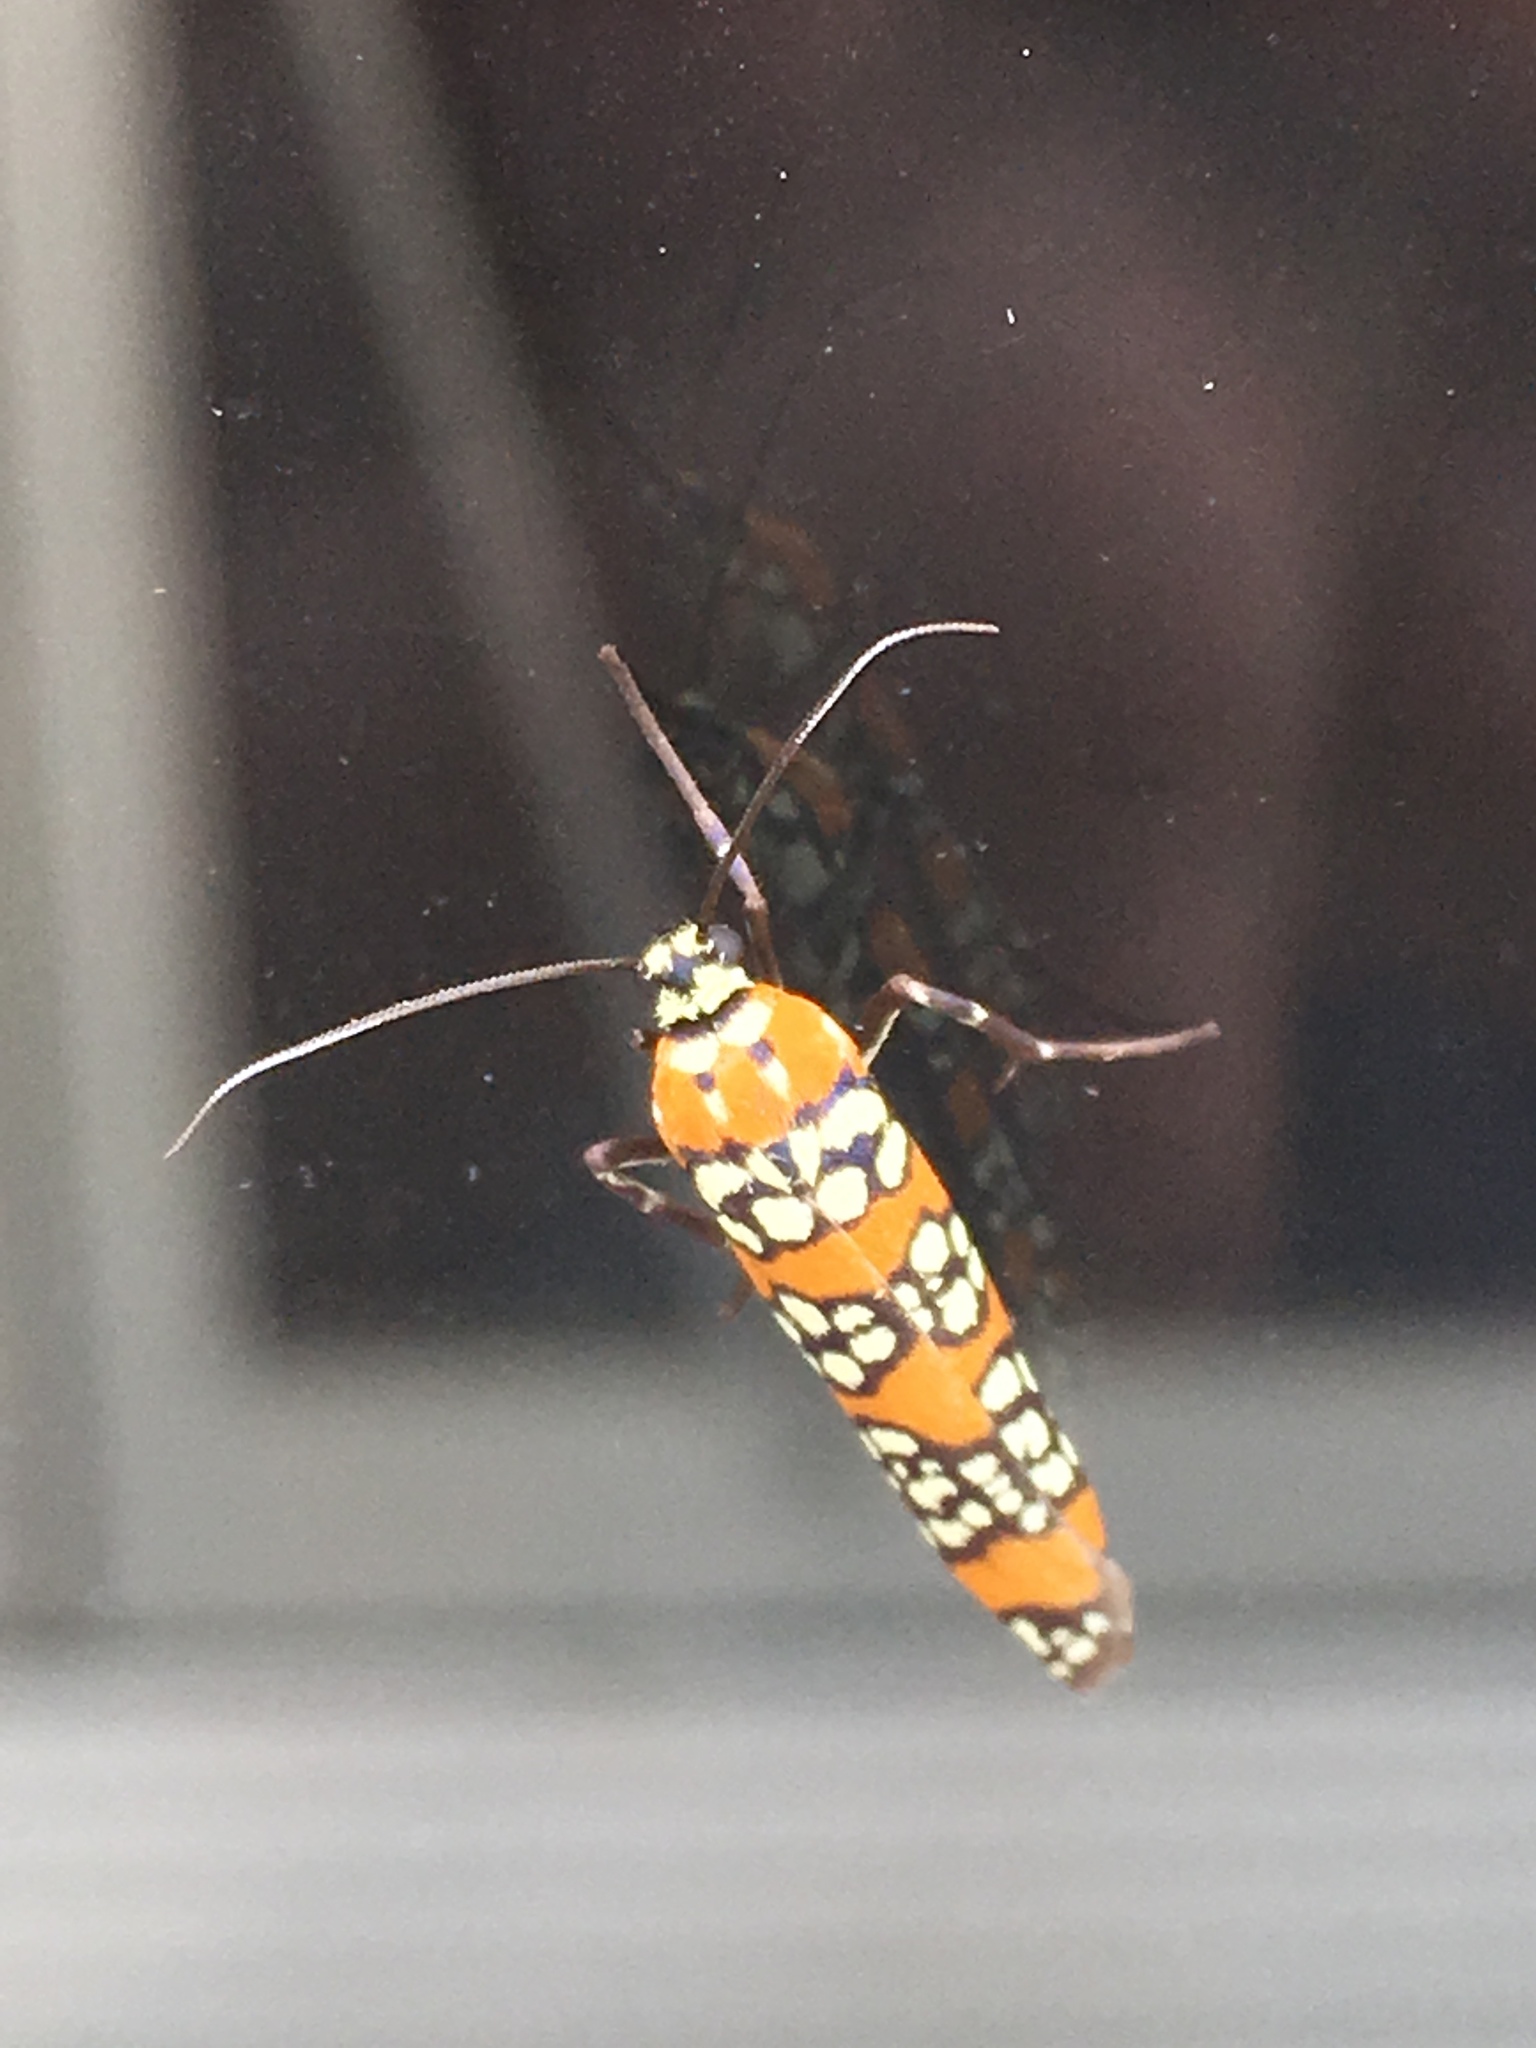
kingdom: Animalia
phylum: Arthropoda
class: Insecta
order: Lepidoptera
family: Attevidae
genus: Atteva
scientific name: Atteva punctella
